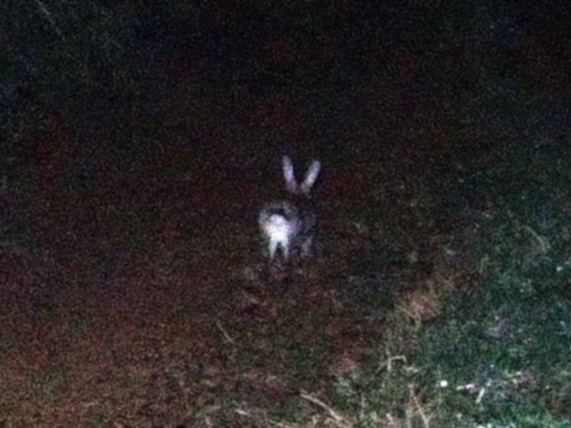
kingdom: Animalia
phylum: Chordata
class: Mammalia
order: Lagomorpha
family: Leporidae
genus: Oryctolagus
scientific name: Oryctolagus cuniculus
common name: European rabbit
